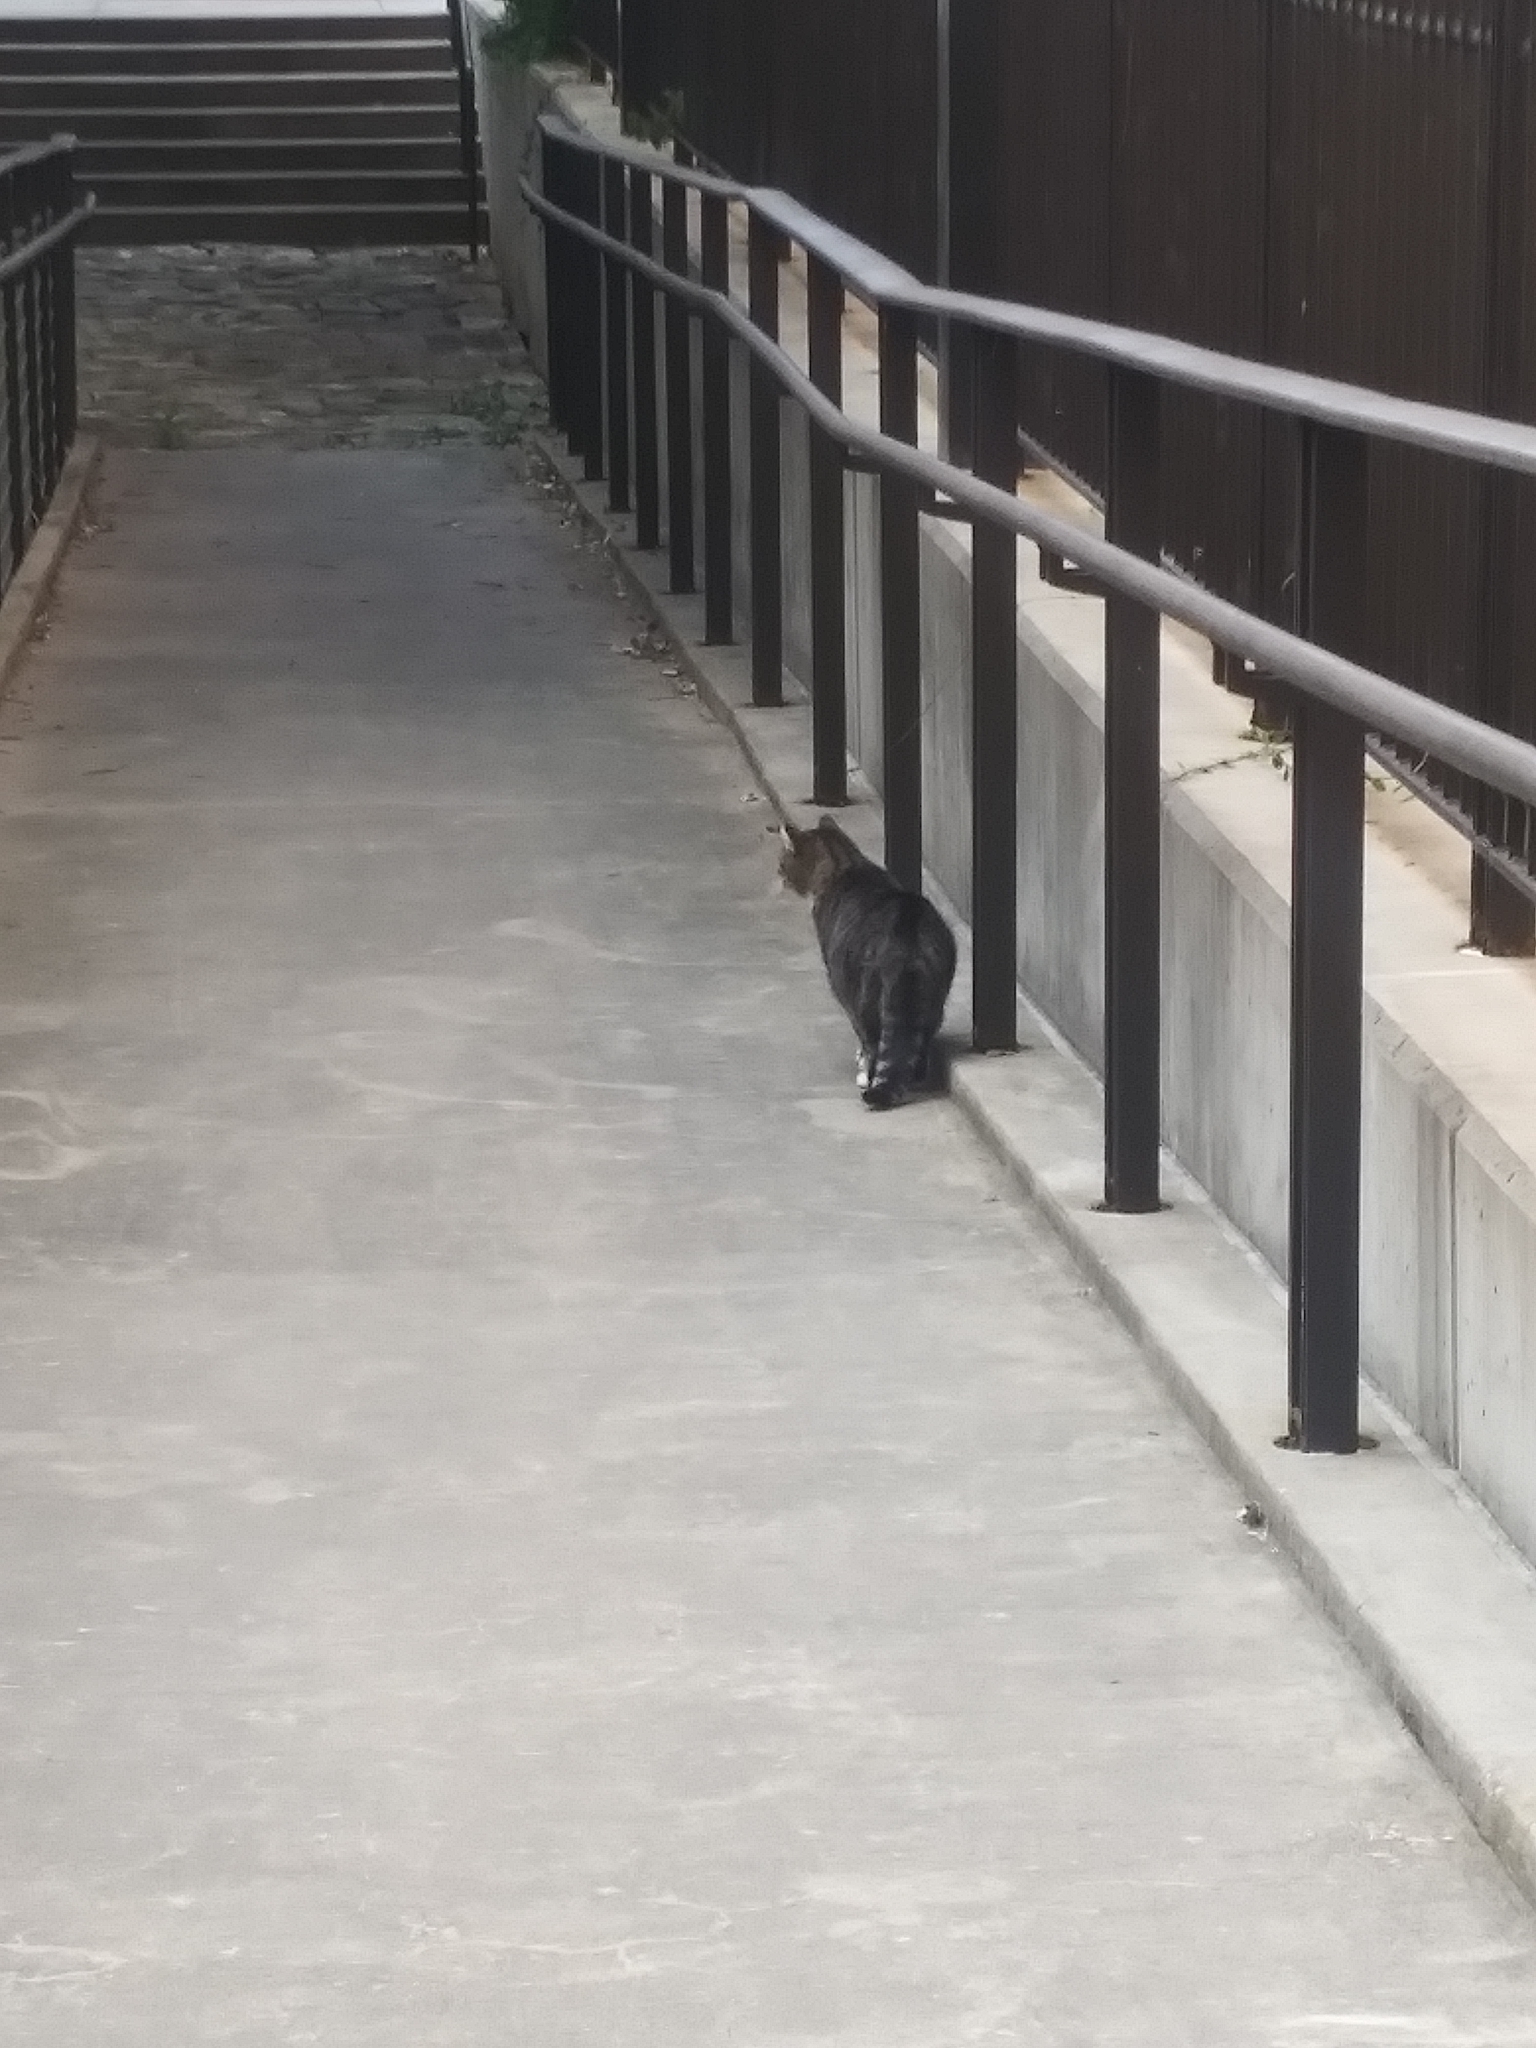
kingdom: Animalia
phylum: Chordata
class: Mammalia
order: Carnivora
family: Felidae
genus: Felis
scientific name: Felis catus
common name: Domestic cat
